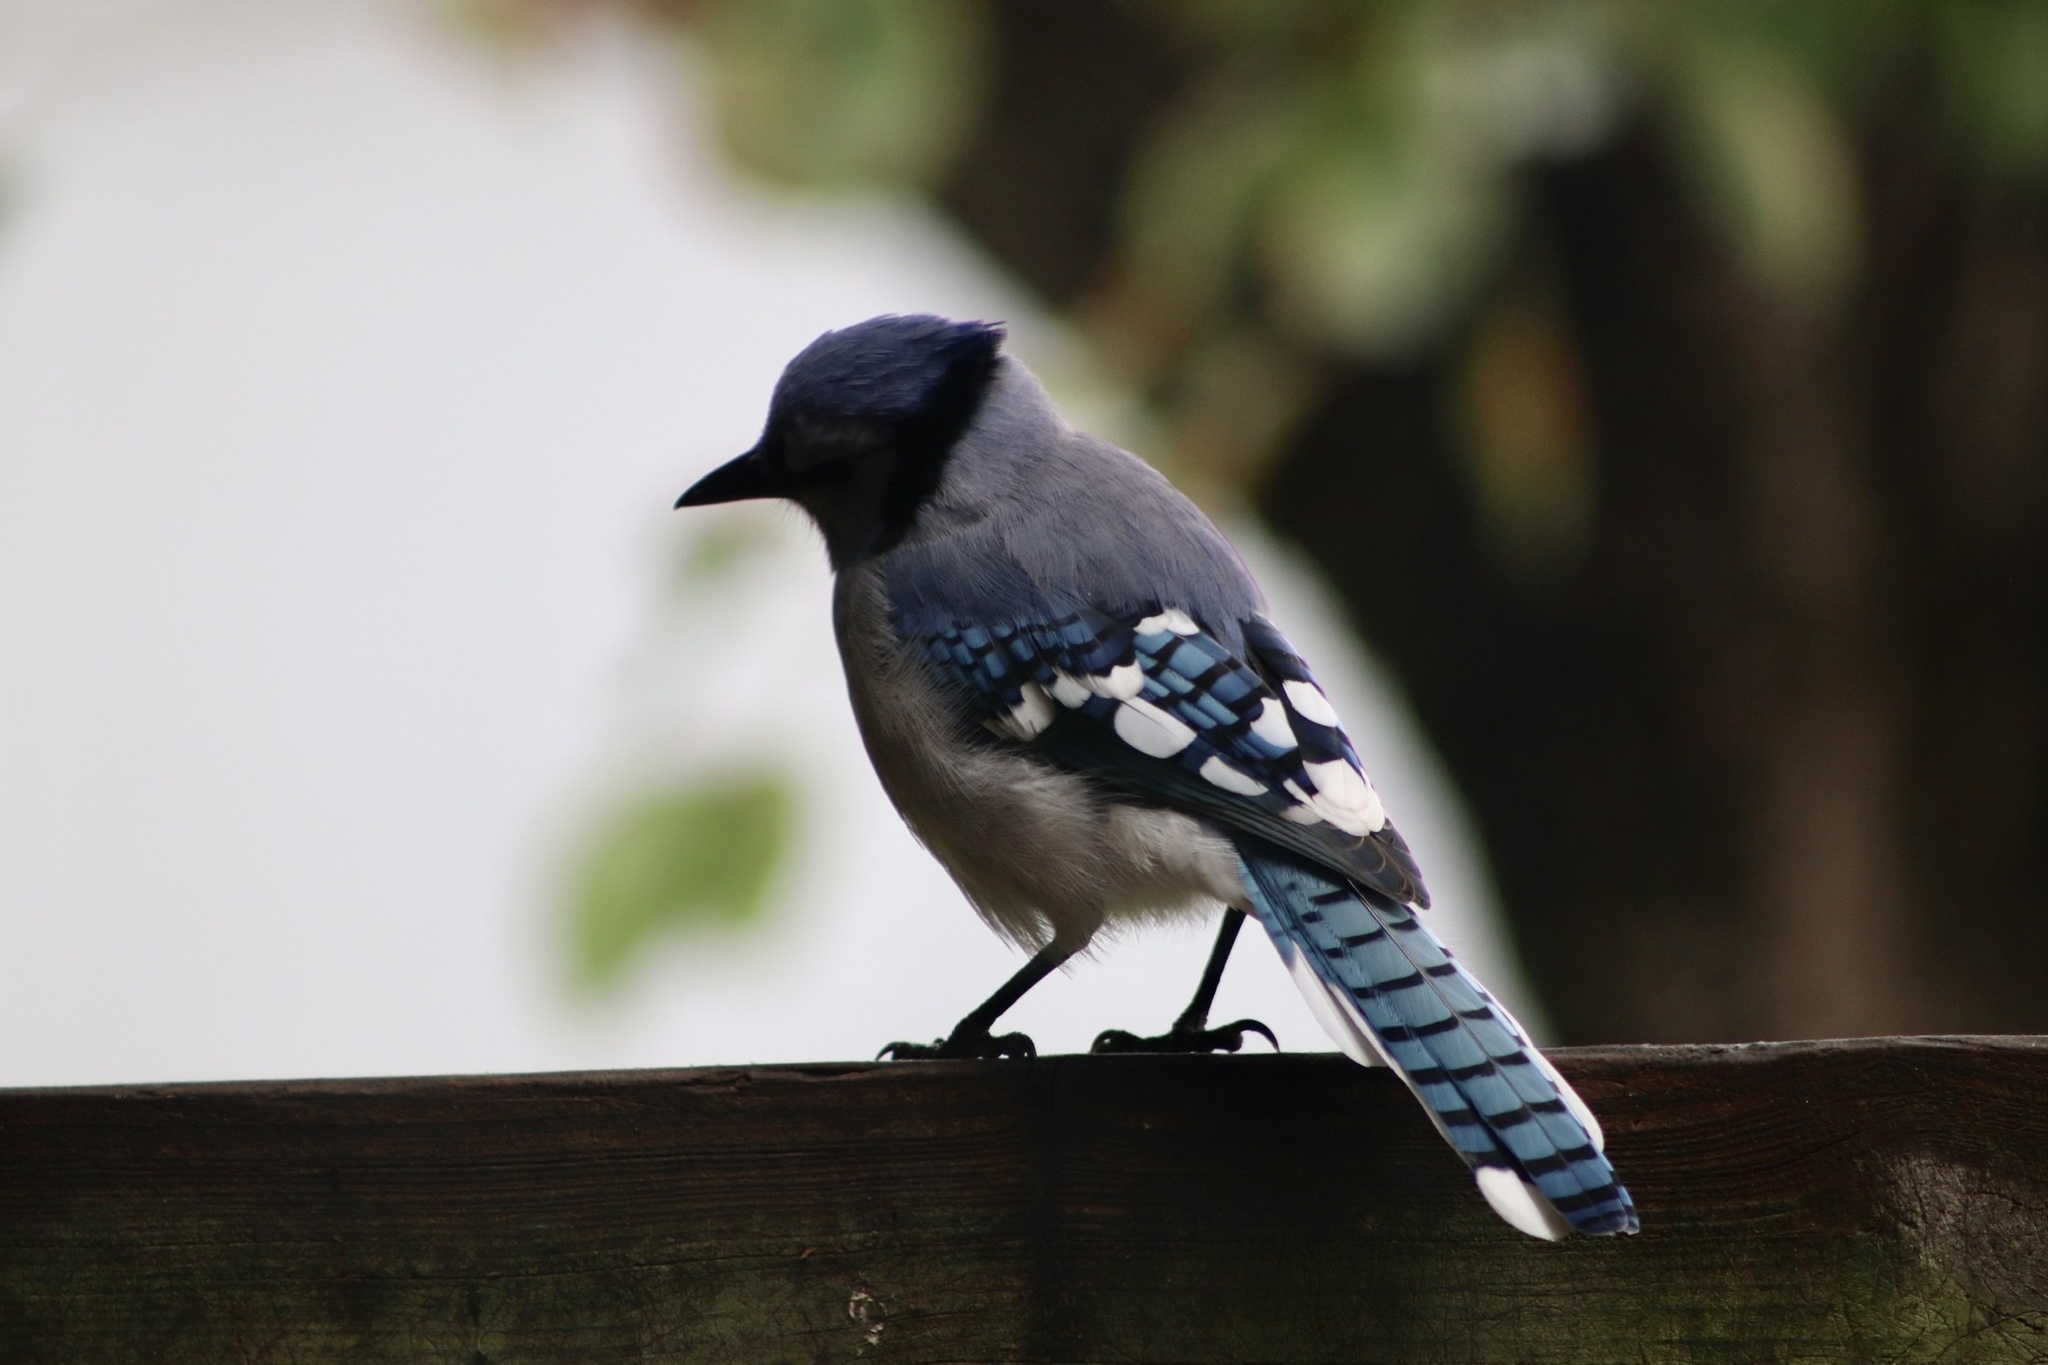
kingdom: Animalia
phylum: Chordata
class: Aves
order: Passeriformes
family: Corvidae
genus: Cyanocitta
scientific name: Cyanocitta cristata
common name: Blue jay
